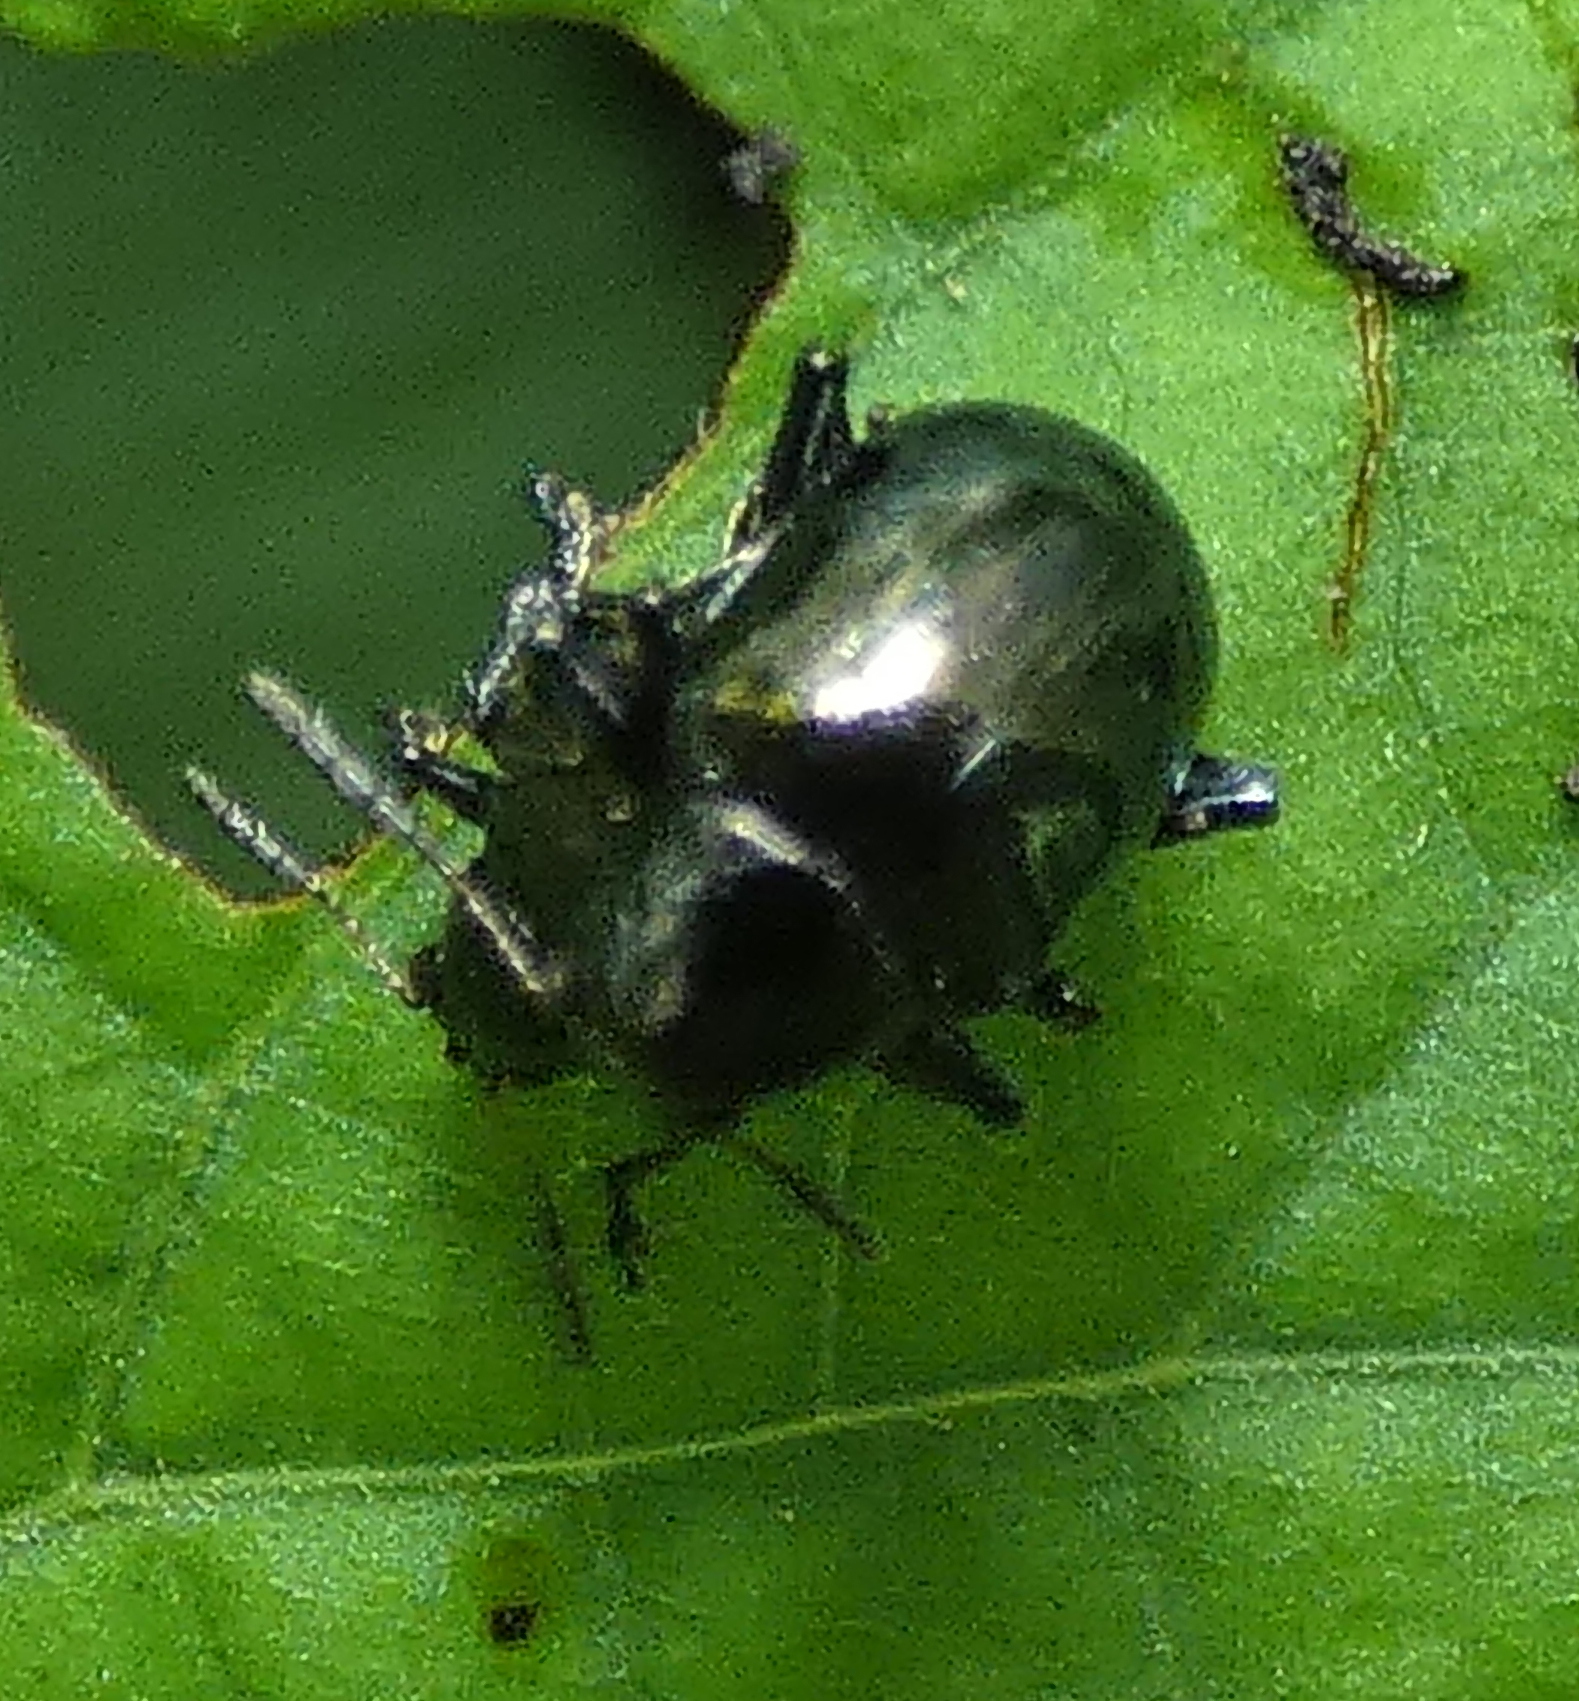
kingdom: Animalia
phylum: Arthropoda
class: Insecta
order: Coleoptera
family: Chrysomelidae
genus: Typophorus
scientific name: Typophorus nigritus
